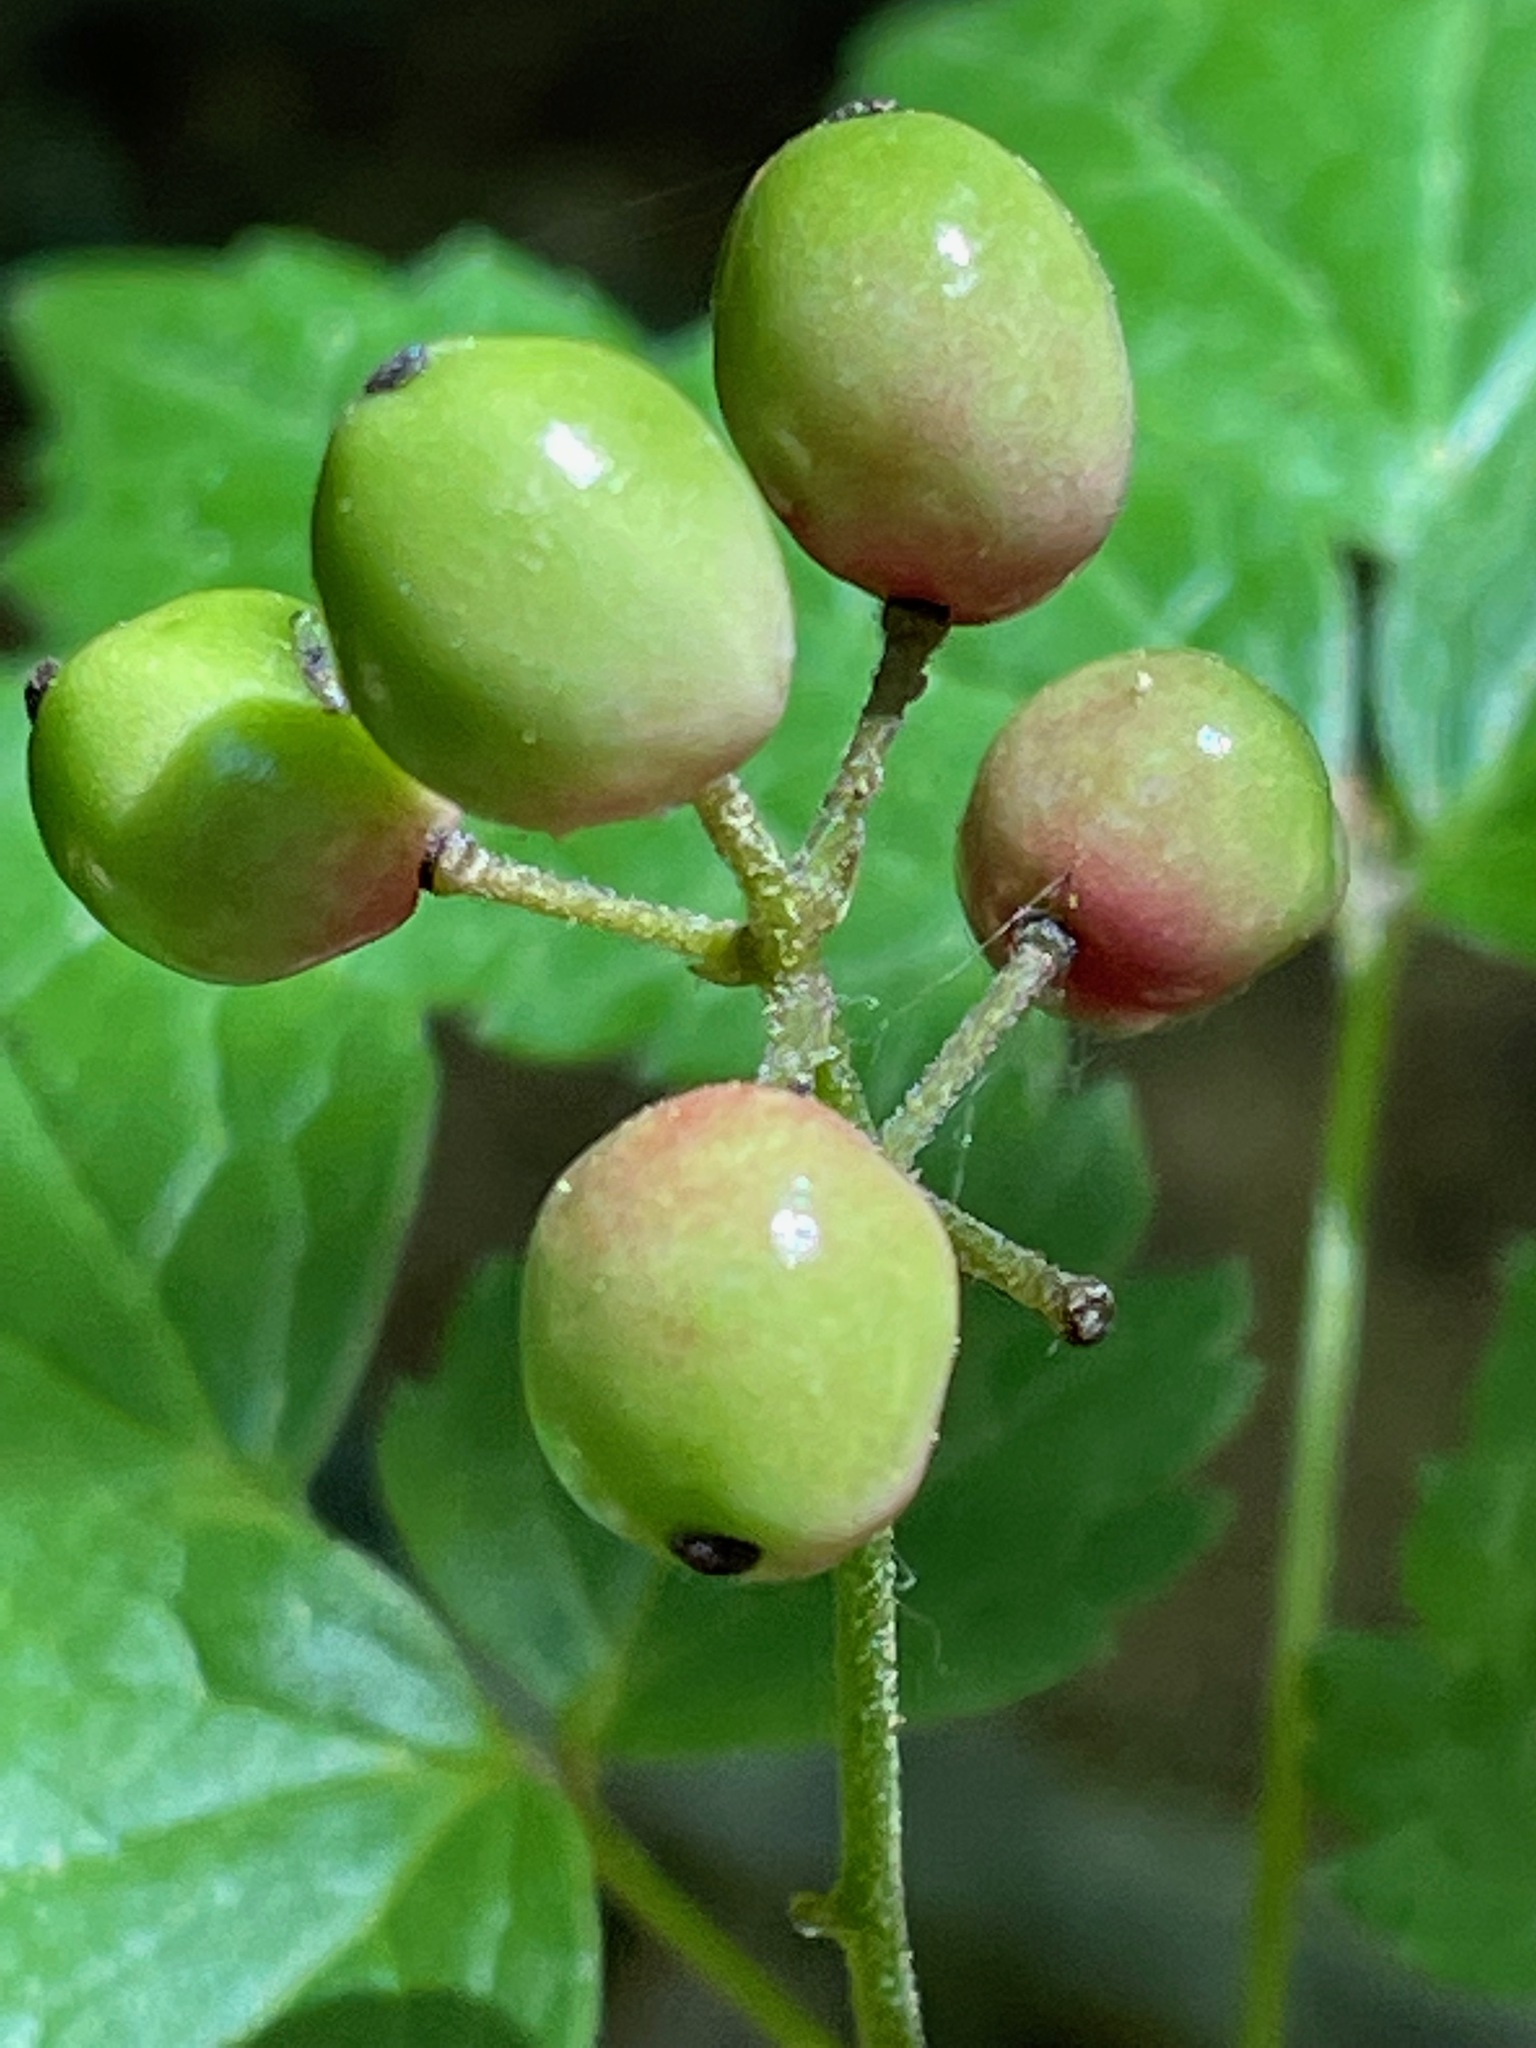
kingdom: Plantae
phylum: Tracheophyta
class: Magnoliopsida
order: Ranunculales
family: Ranunculaceae
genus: Actaea
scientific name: Actaea rubra
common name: Red baneberry
